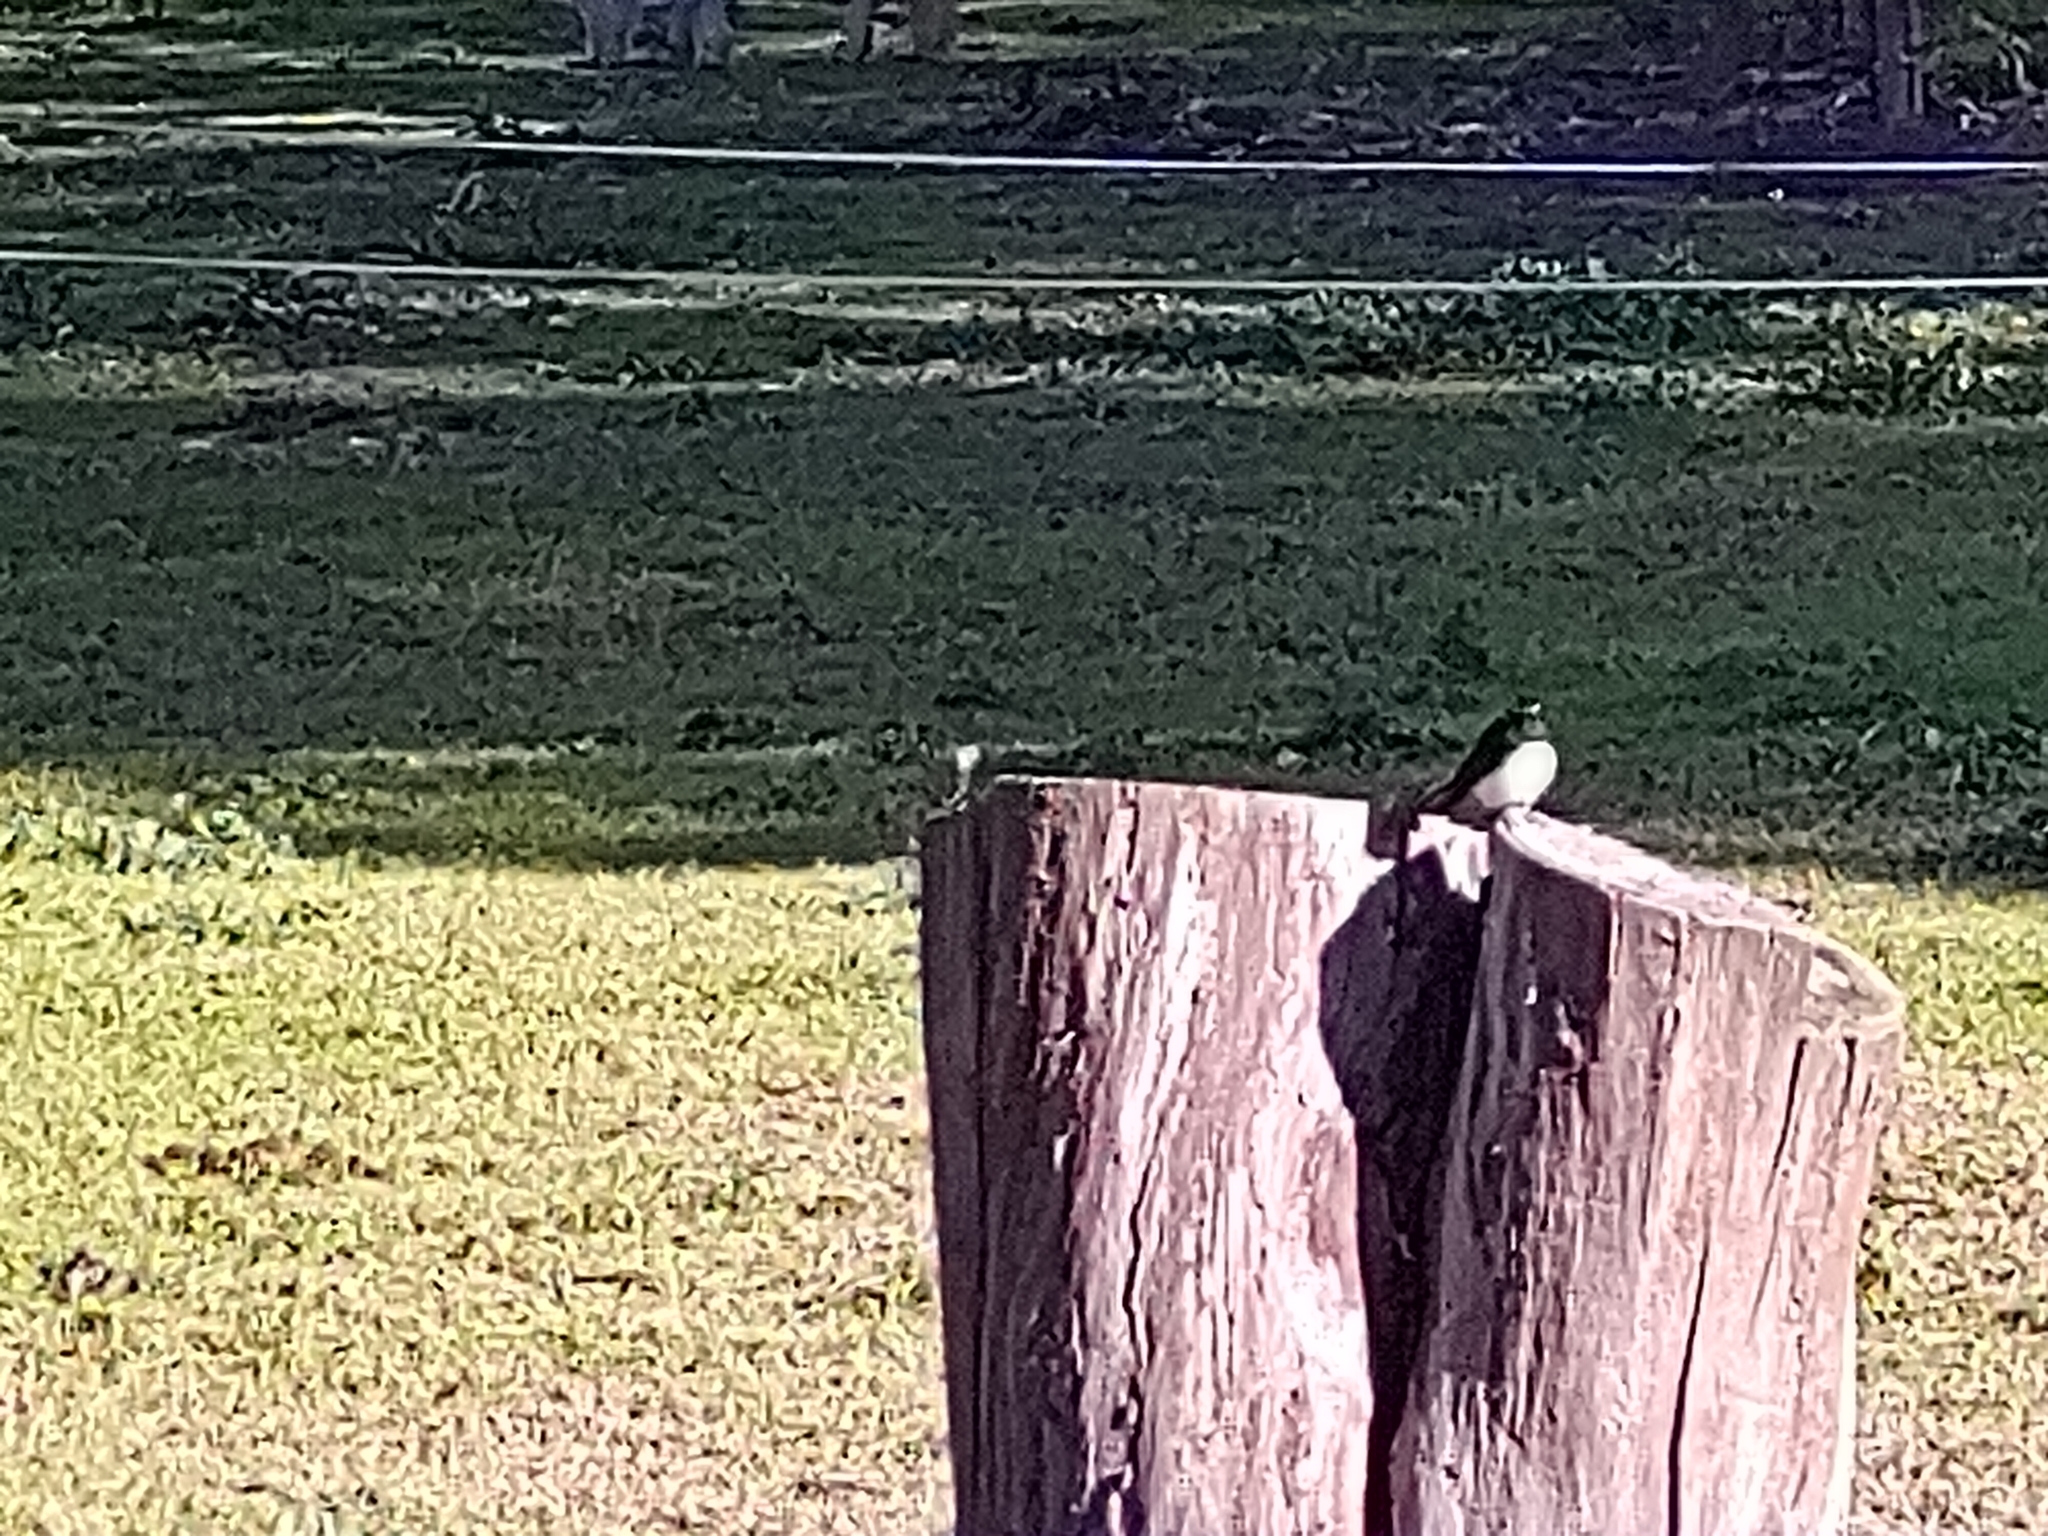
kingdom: Animalia
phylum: Chordata
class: Aves
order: Passeriformes
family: Rhipiduridae
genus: Rhipidura
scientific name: Rhipidura leucophrys
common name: Willie wagtail
